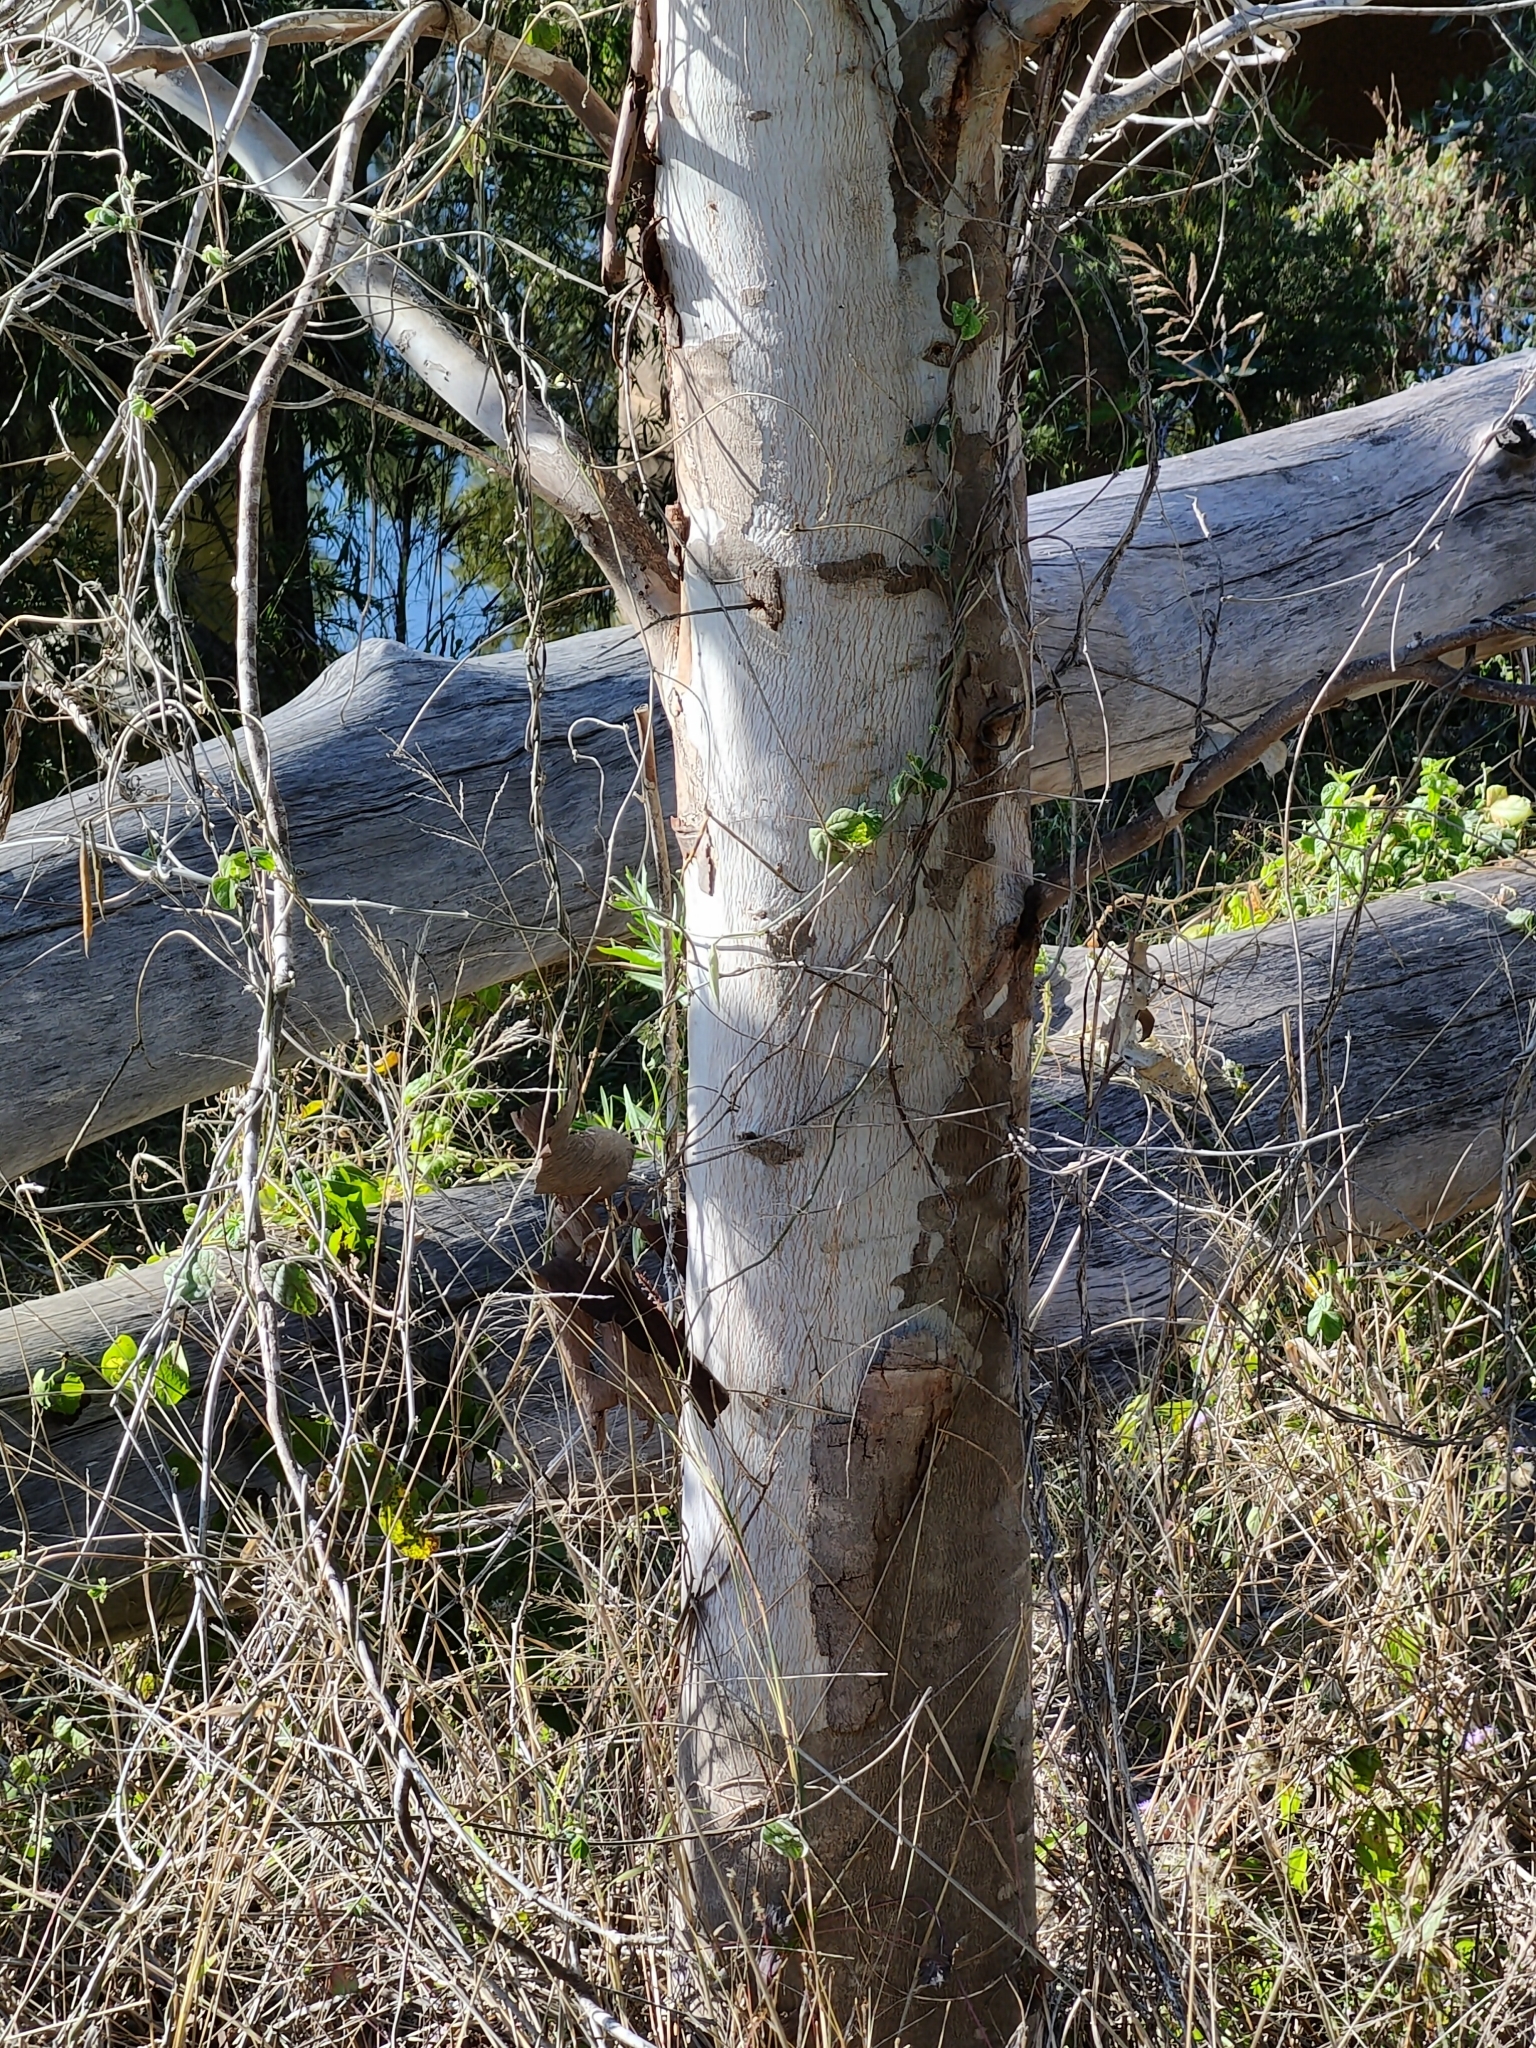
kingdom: Plantae
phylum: Tracheophyta
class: Magnoliopsida
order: Myrtales
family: Myrtaceae
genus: Eucalyptus
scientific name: Eucalyptus tereticornis
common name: Forest redgum
